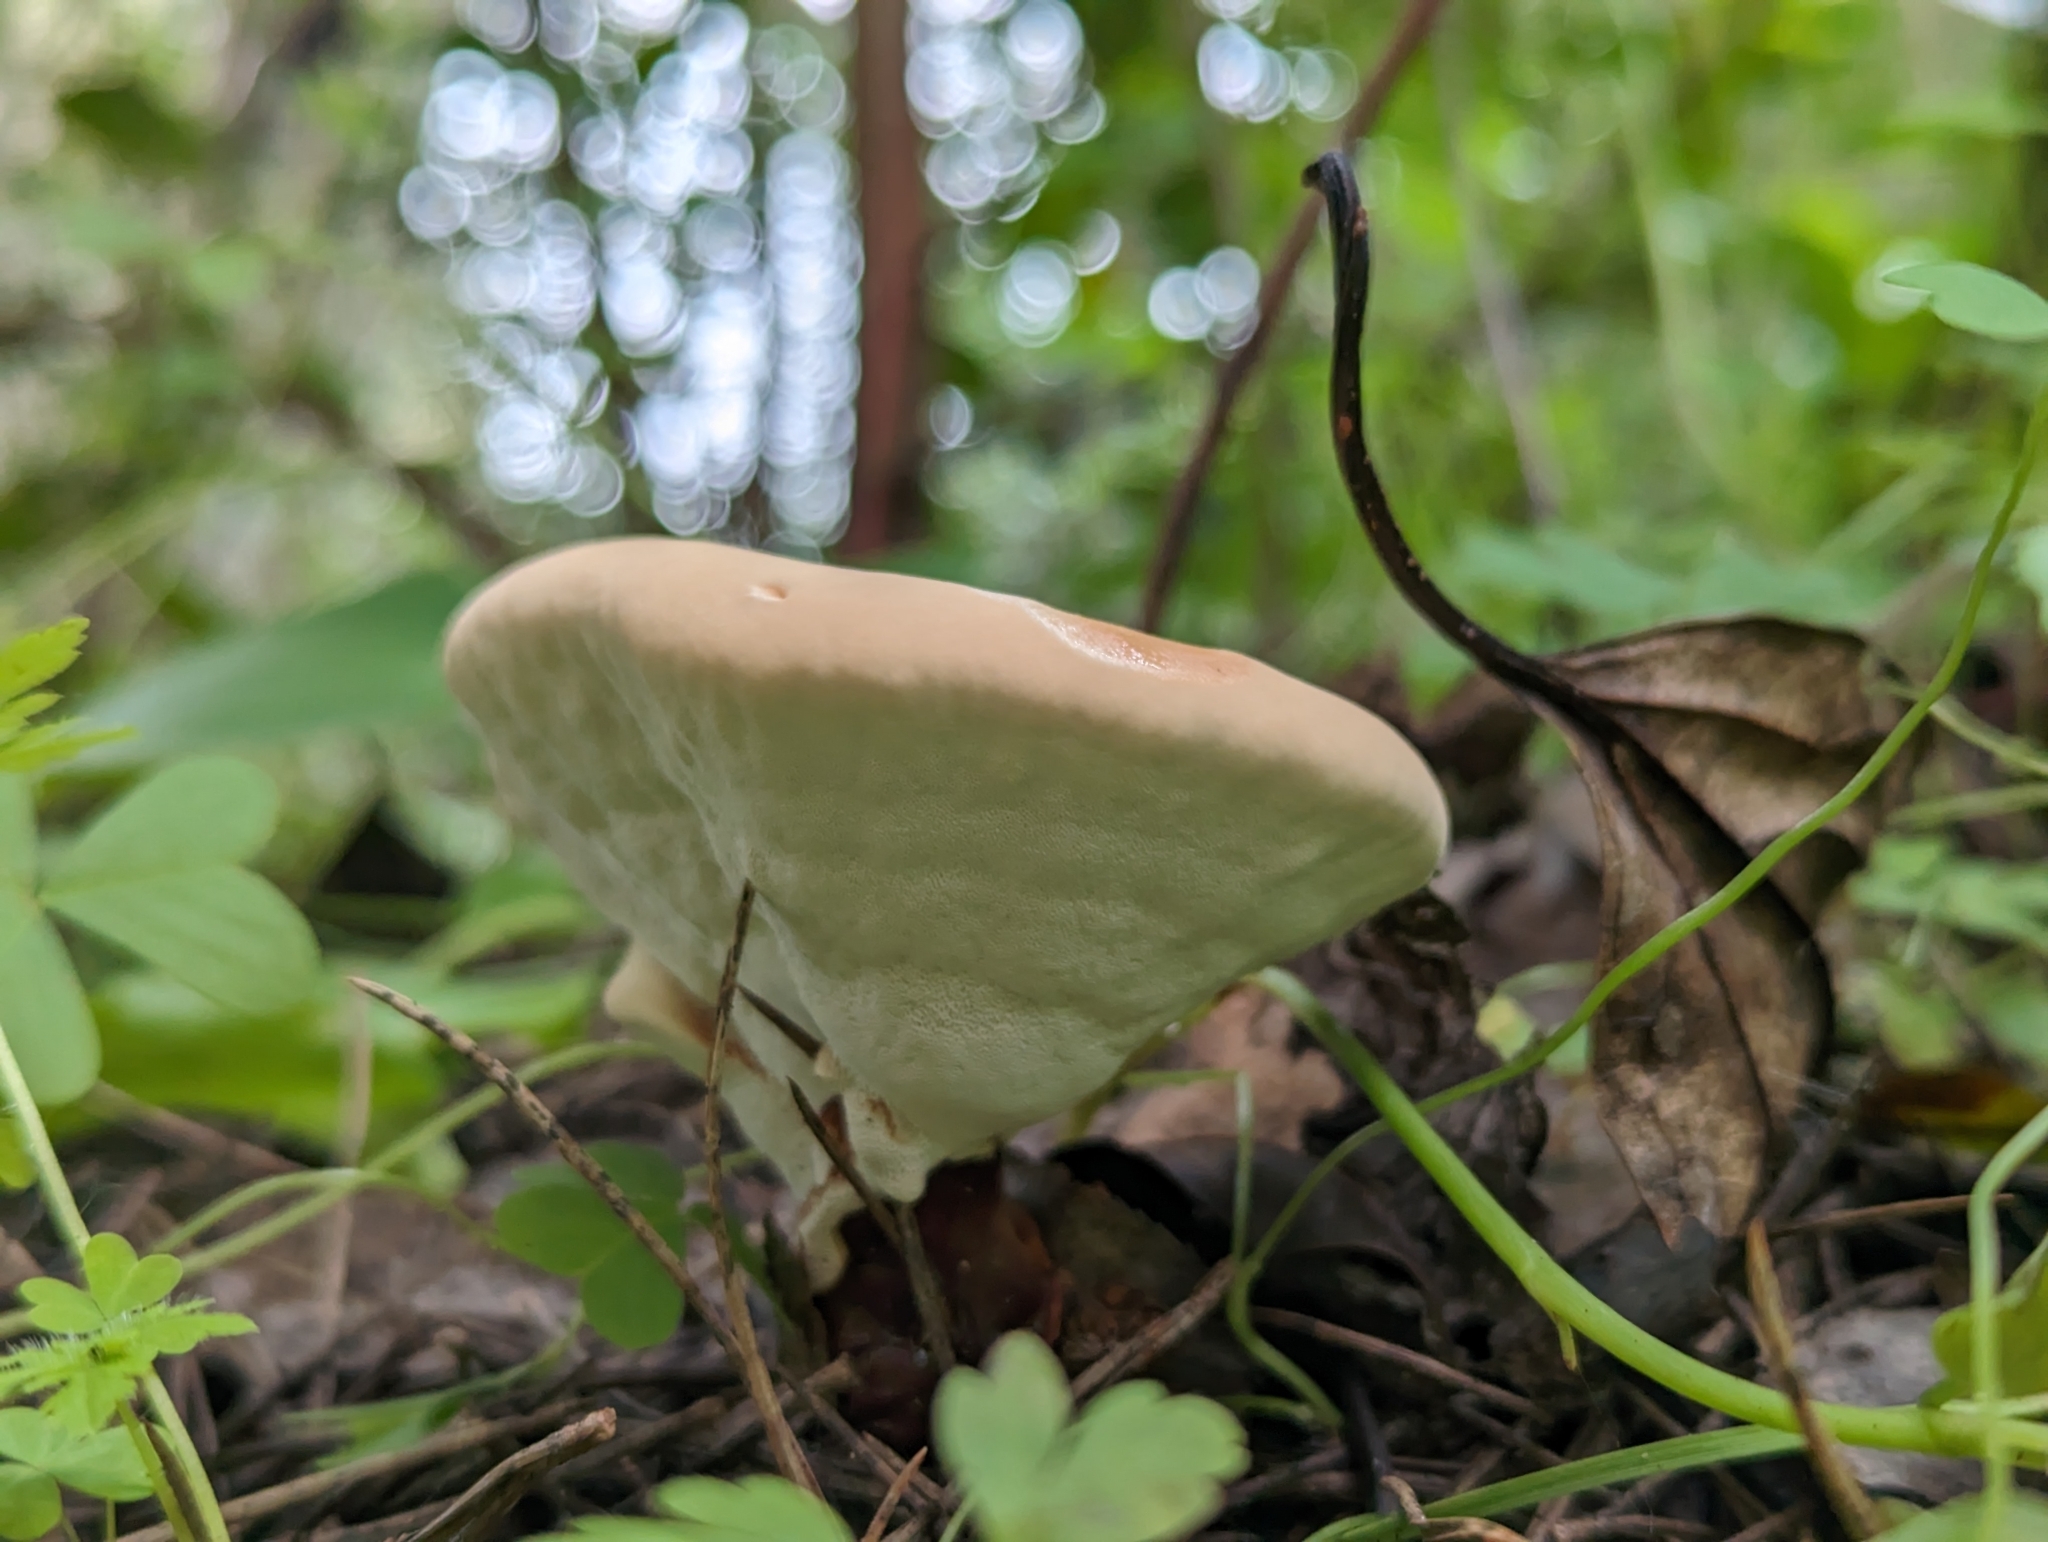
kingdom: Fungi
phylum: Basidiomycota
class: Agaricomycetes
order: Polyporales
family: Polyporaceae
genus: Ganoderma
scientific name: Ganoderma lucidum
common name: Lacquered bracket
